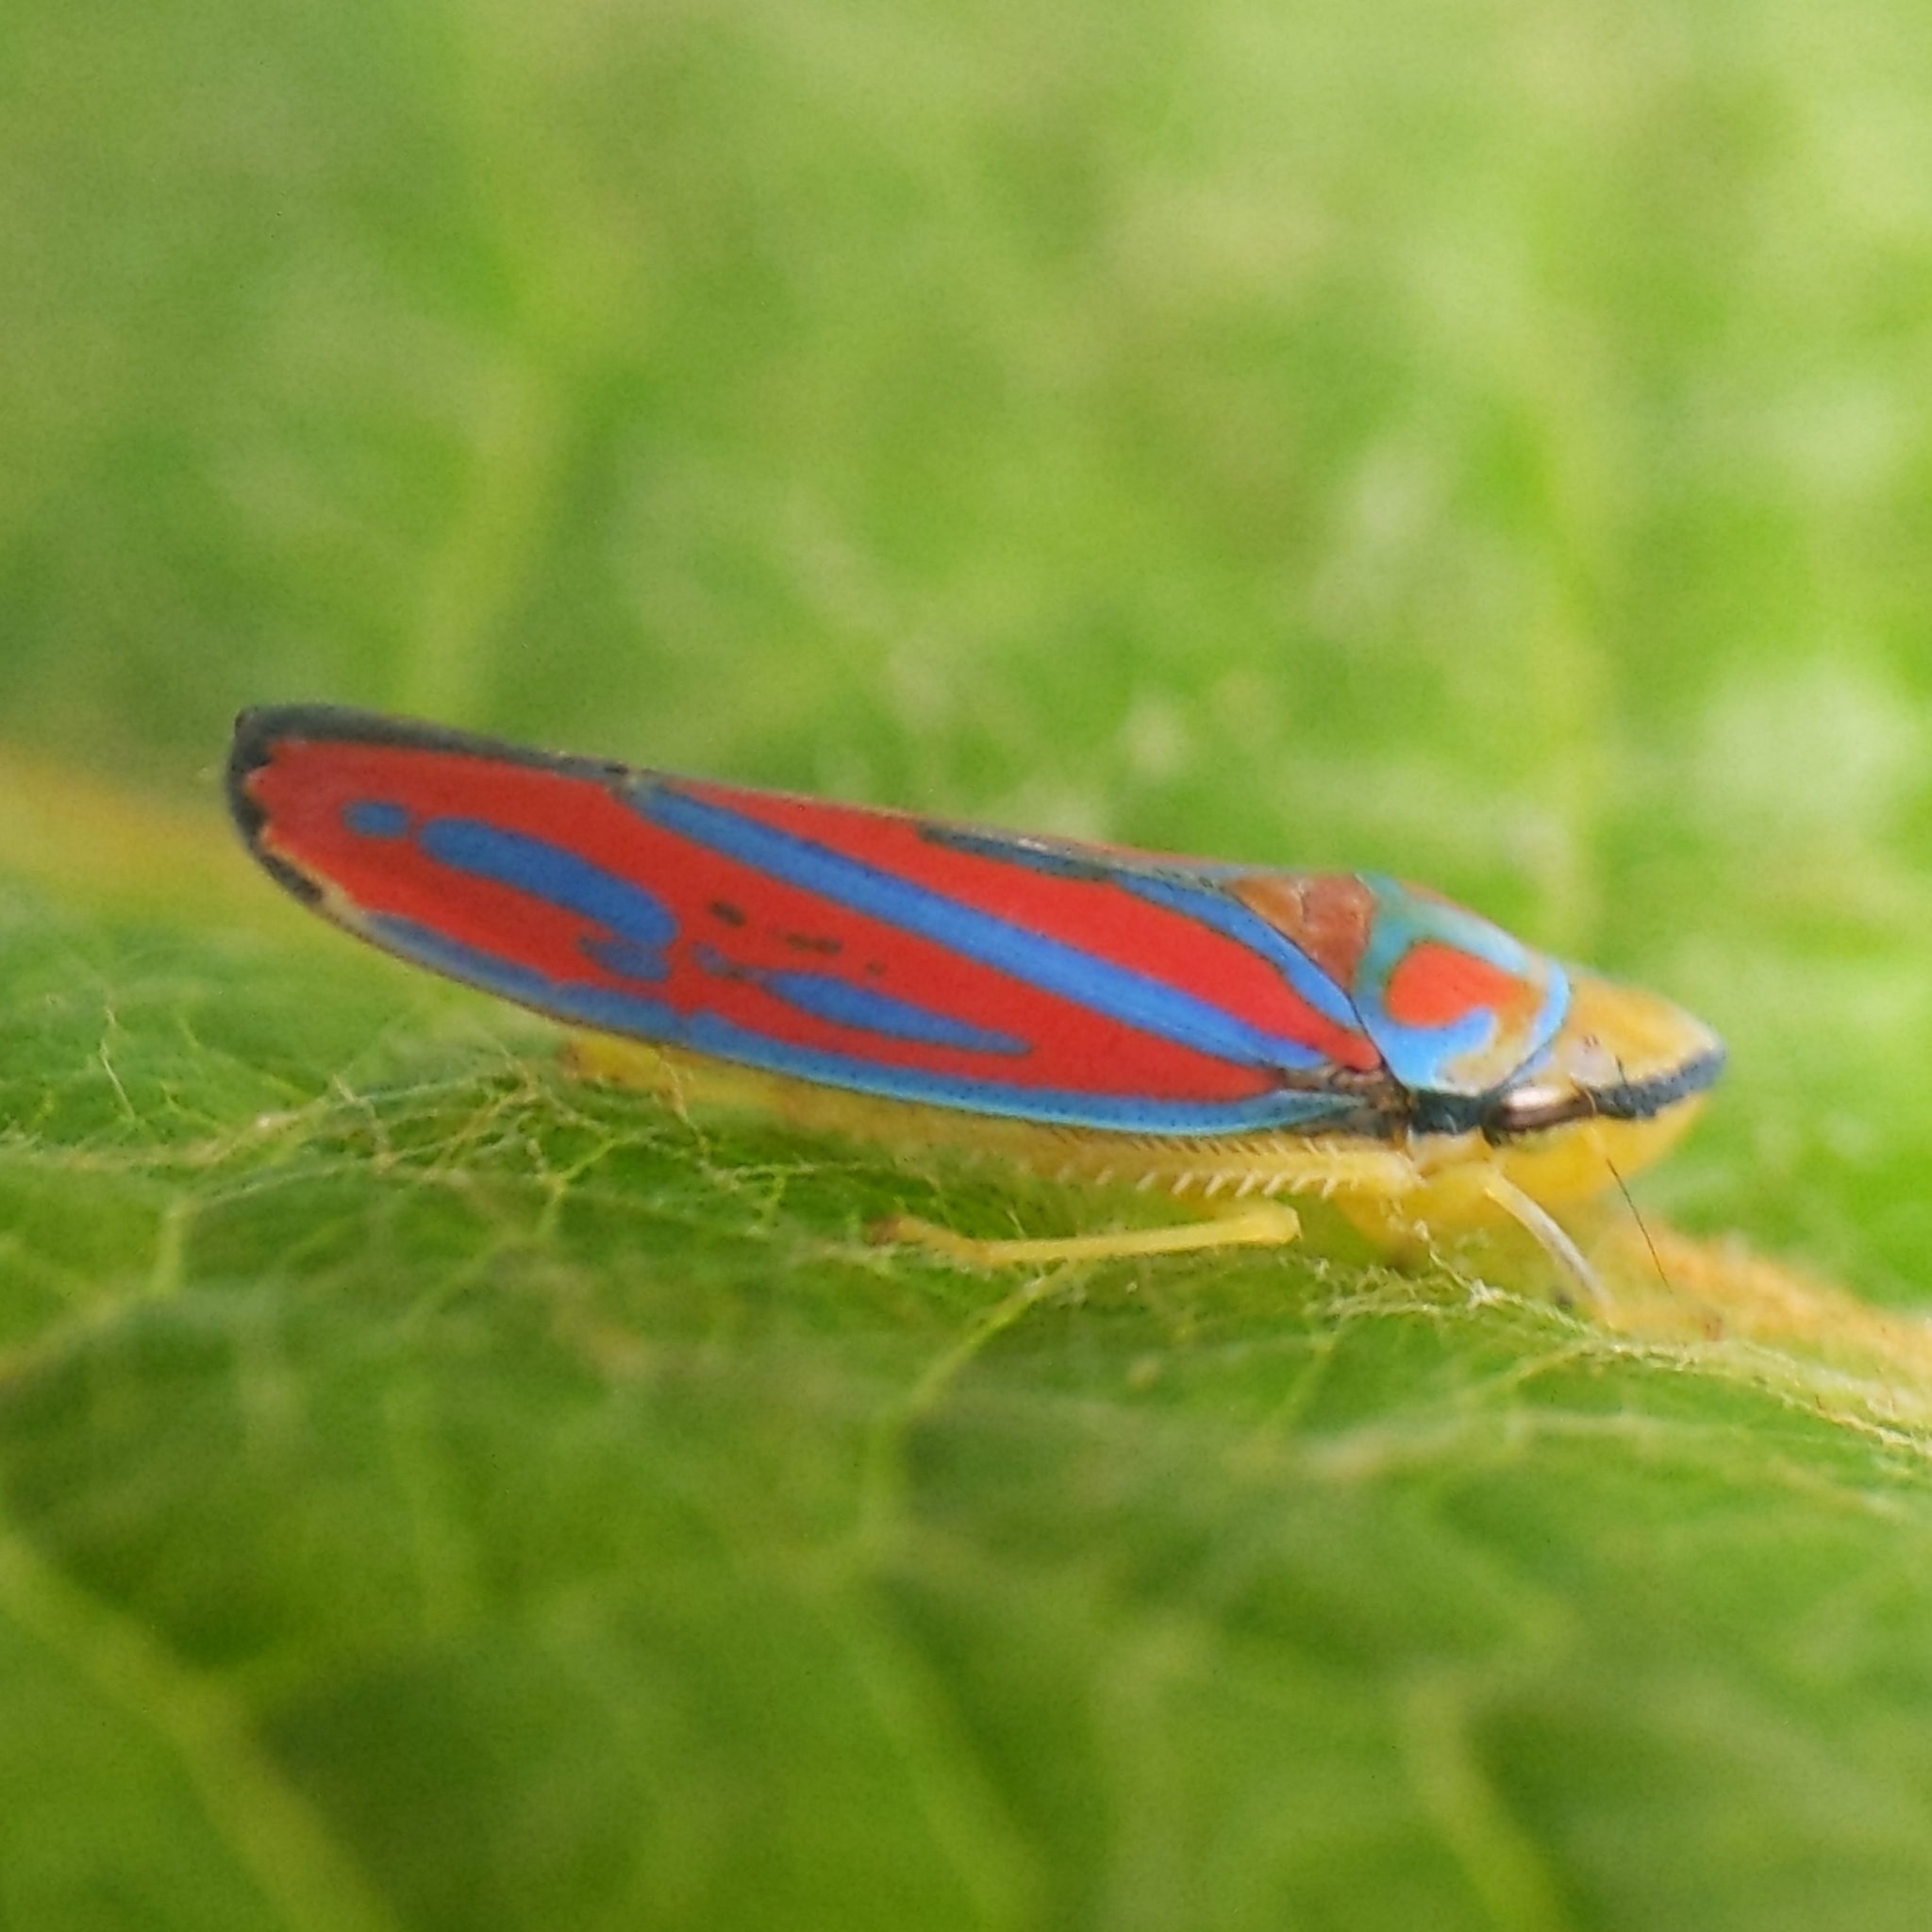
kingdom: Animalia
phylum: Arthropoda
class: Insecta
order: Hemiptera
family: Cicadellidae
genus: Graphocephala
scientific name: Graphocephala coccinea
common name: Candy-striped leafhopper
